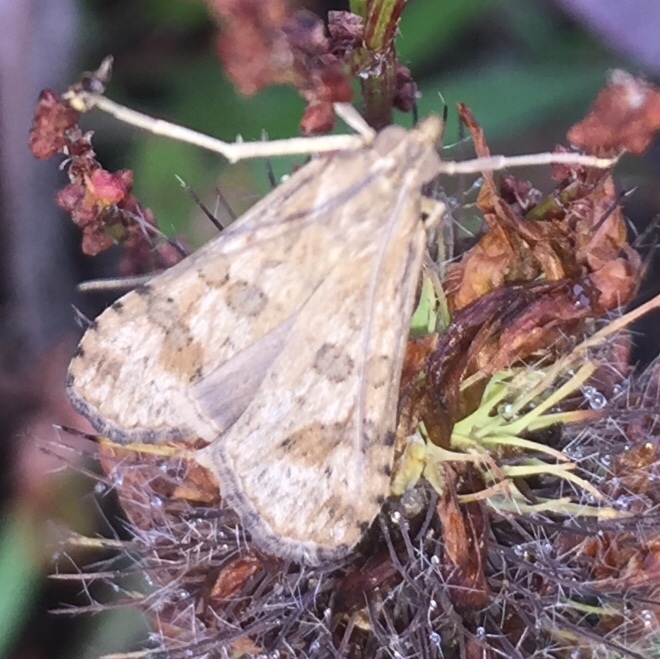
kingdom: Animalia
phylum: Arthropoda
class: Insecta
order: Lepidoptera
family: Crambidae
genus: Nomophila
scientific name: Nomophila nearctica
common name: American rush veneer
